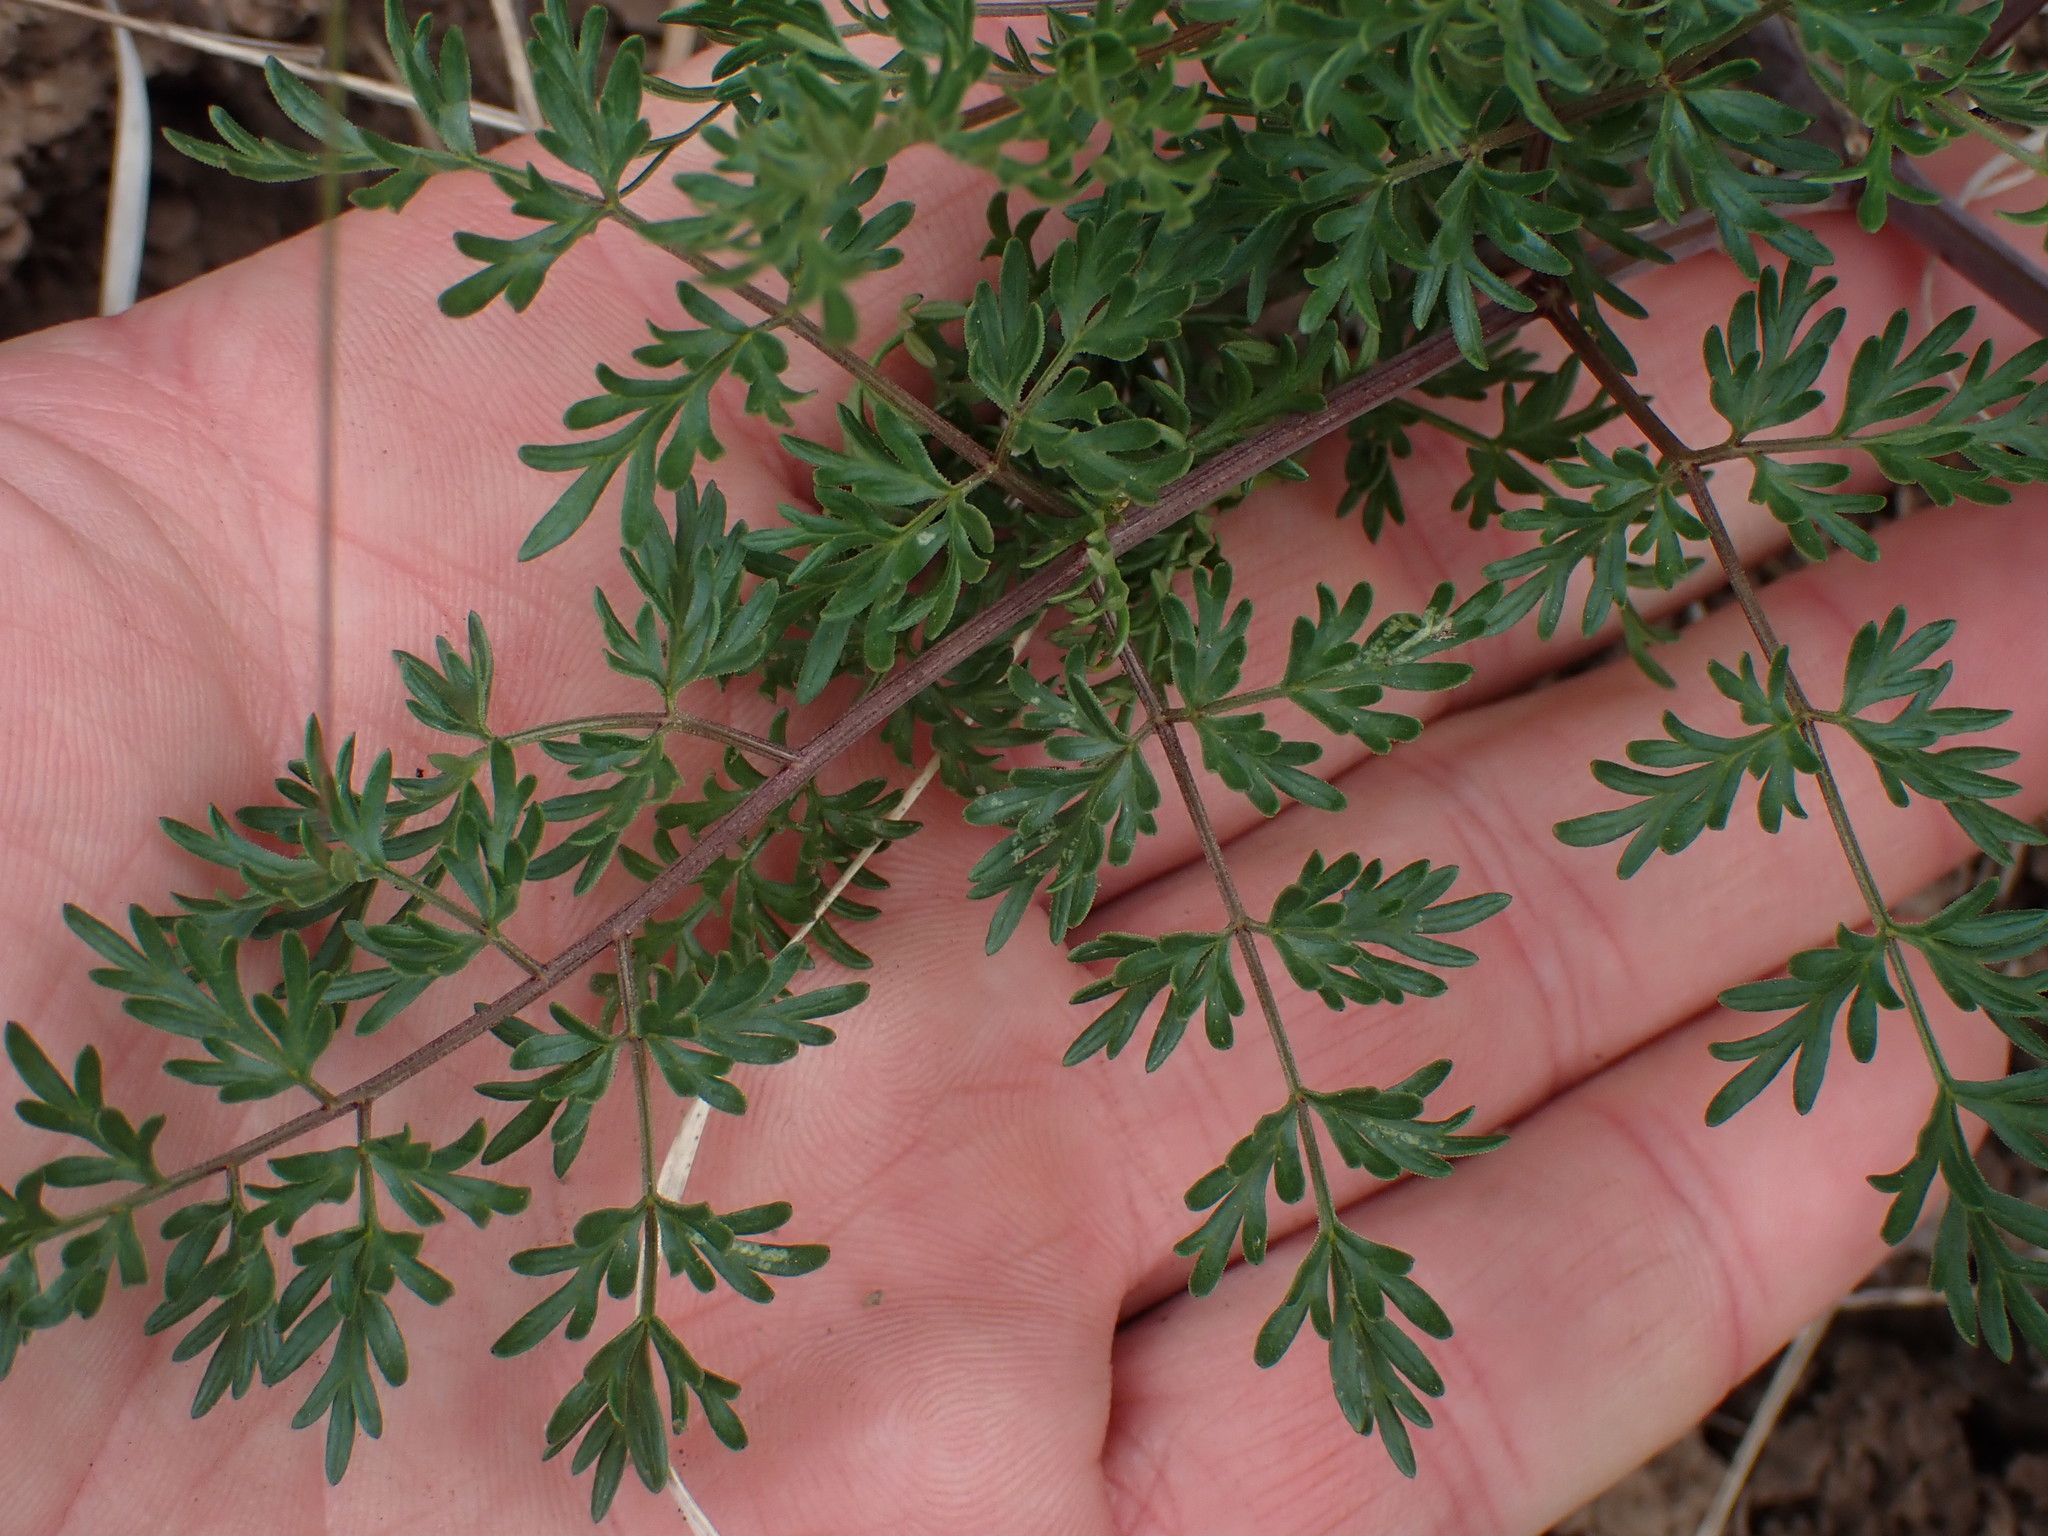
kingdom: Plantae
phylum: Tracheophyta
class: Magnoliopsida
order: Apiales
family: Apiaceae
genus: Lomatium
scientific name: Lomatium multifidum
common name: Carrot-leaved biscuitroot
